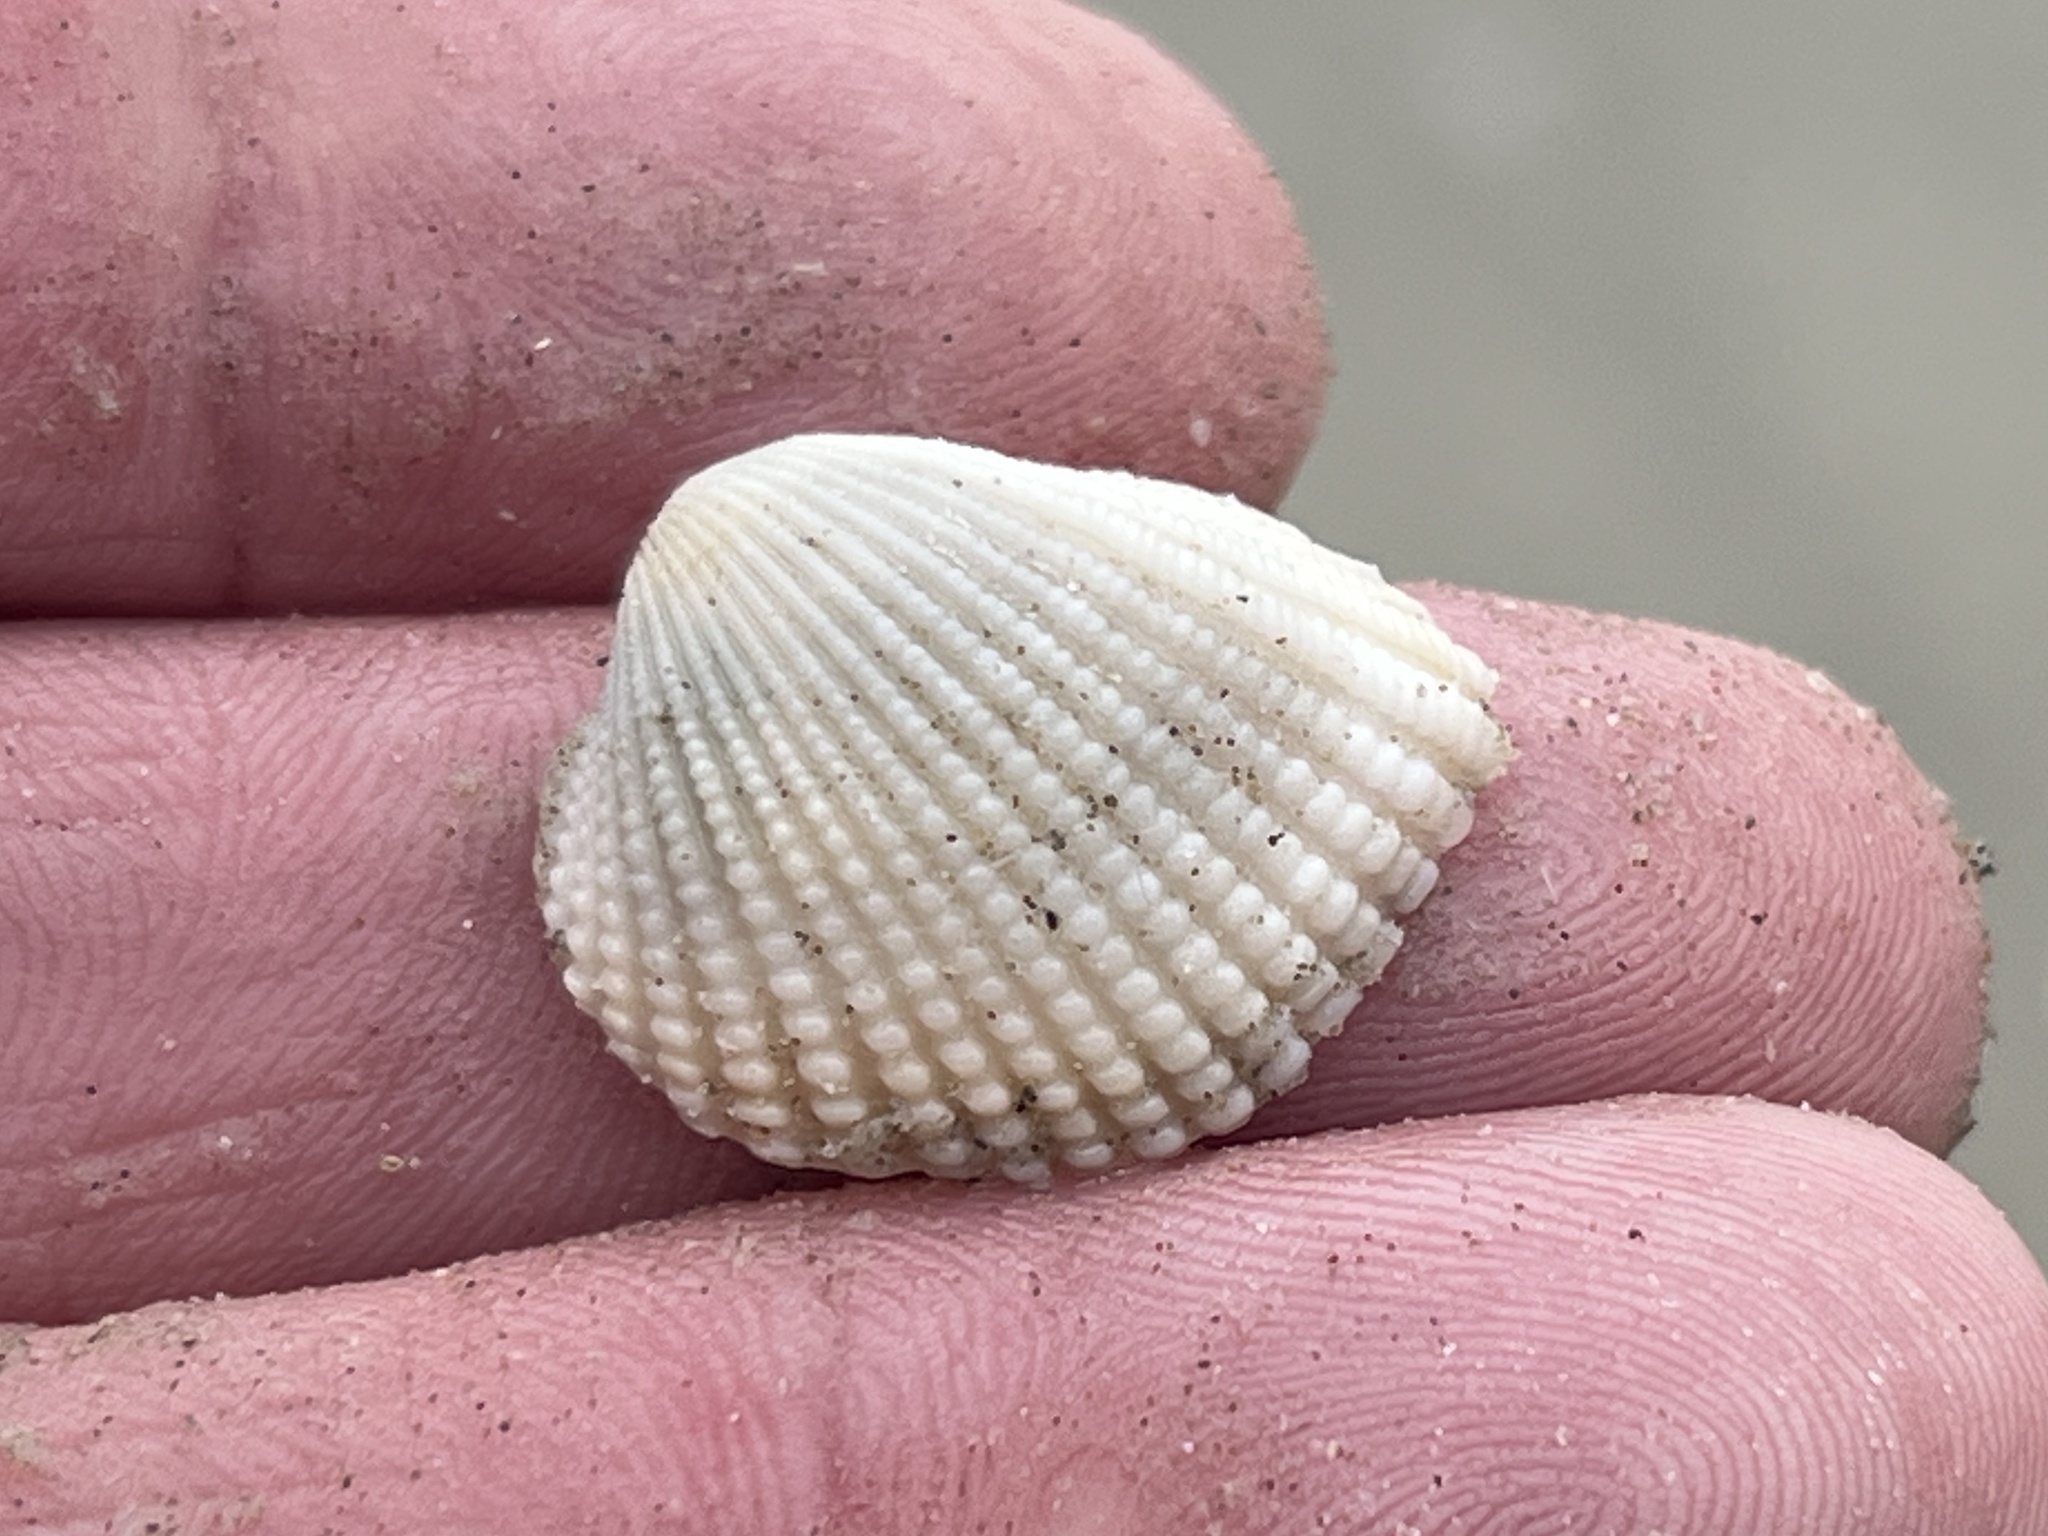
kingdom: Animalia
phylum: Mollusca
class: Bivalvia
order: Arcida
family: Arcidae
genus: Anadara
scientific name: Anadara brasiliana
